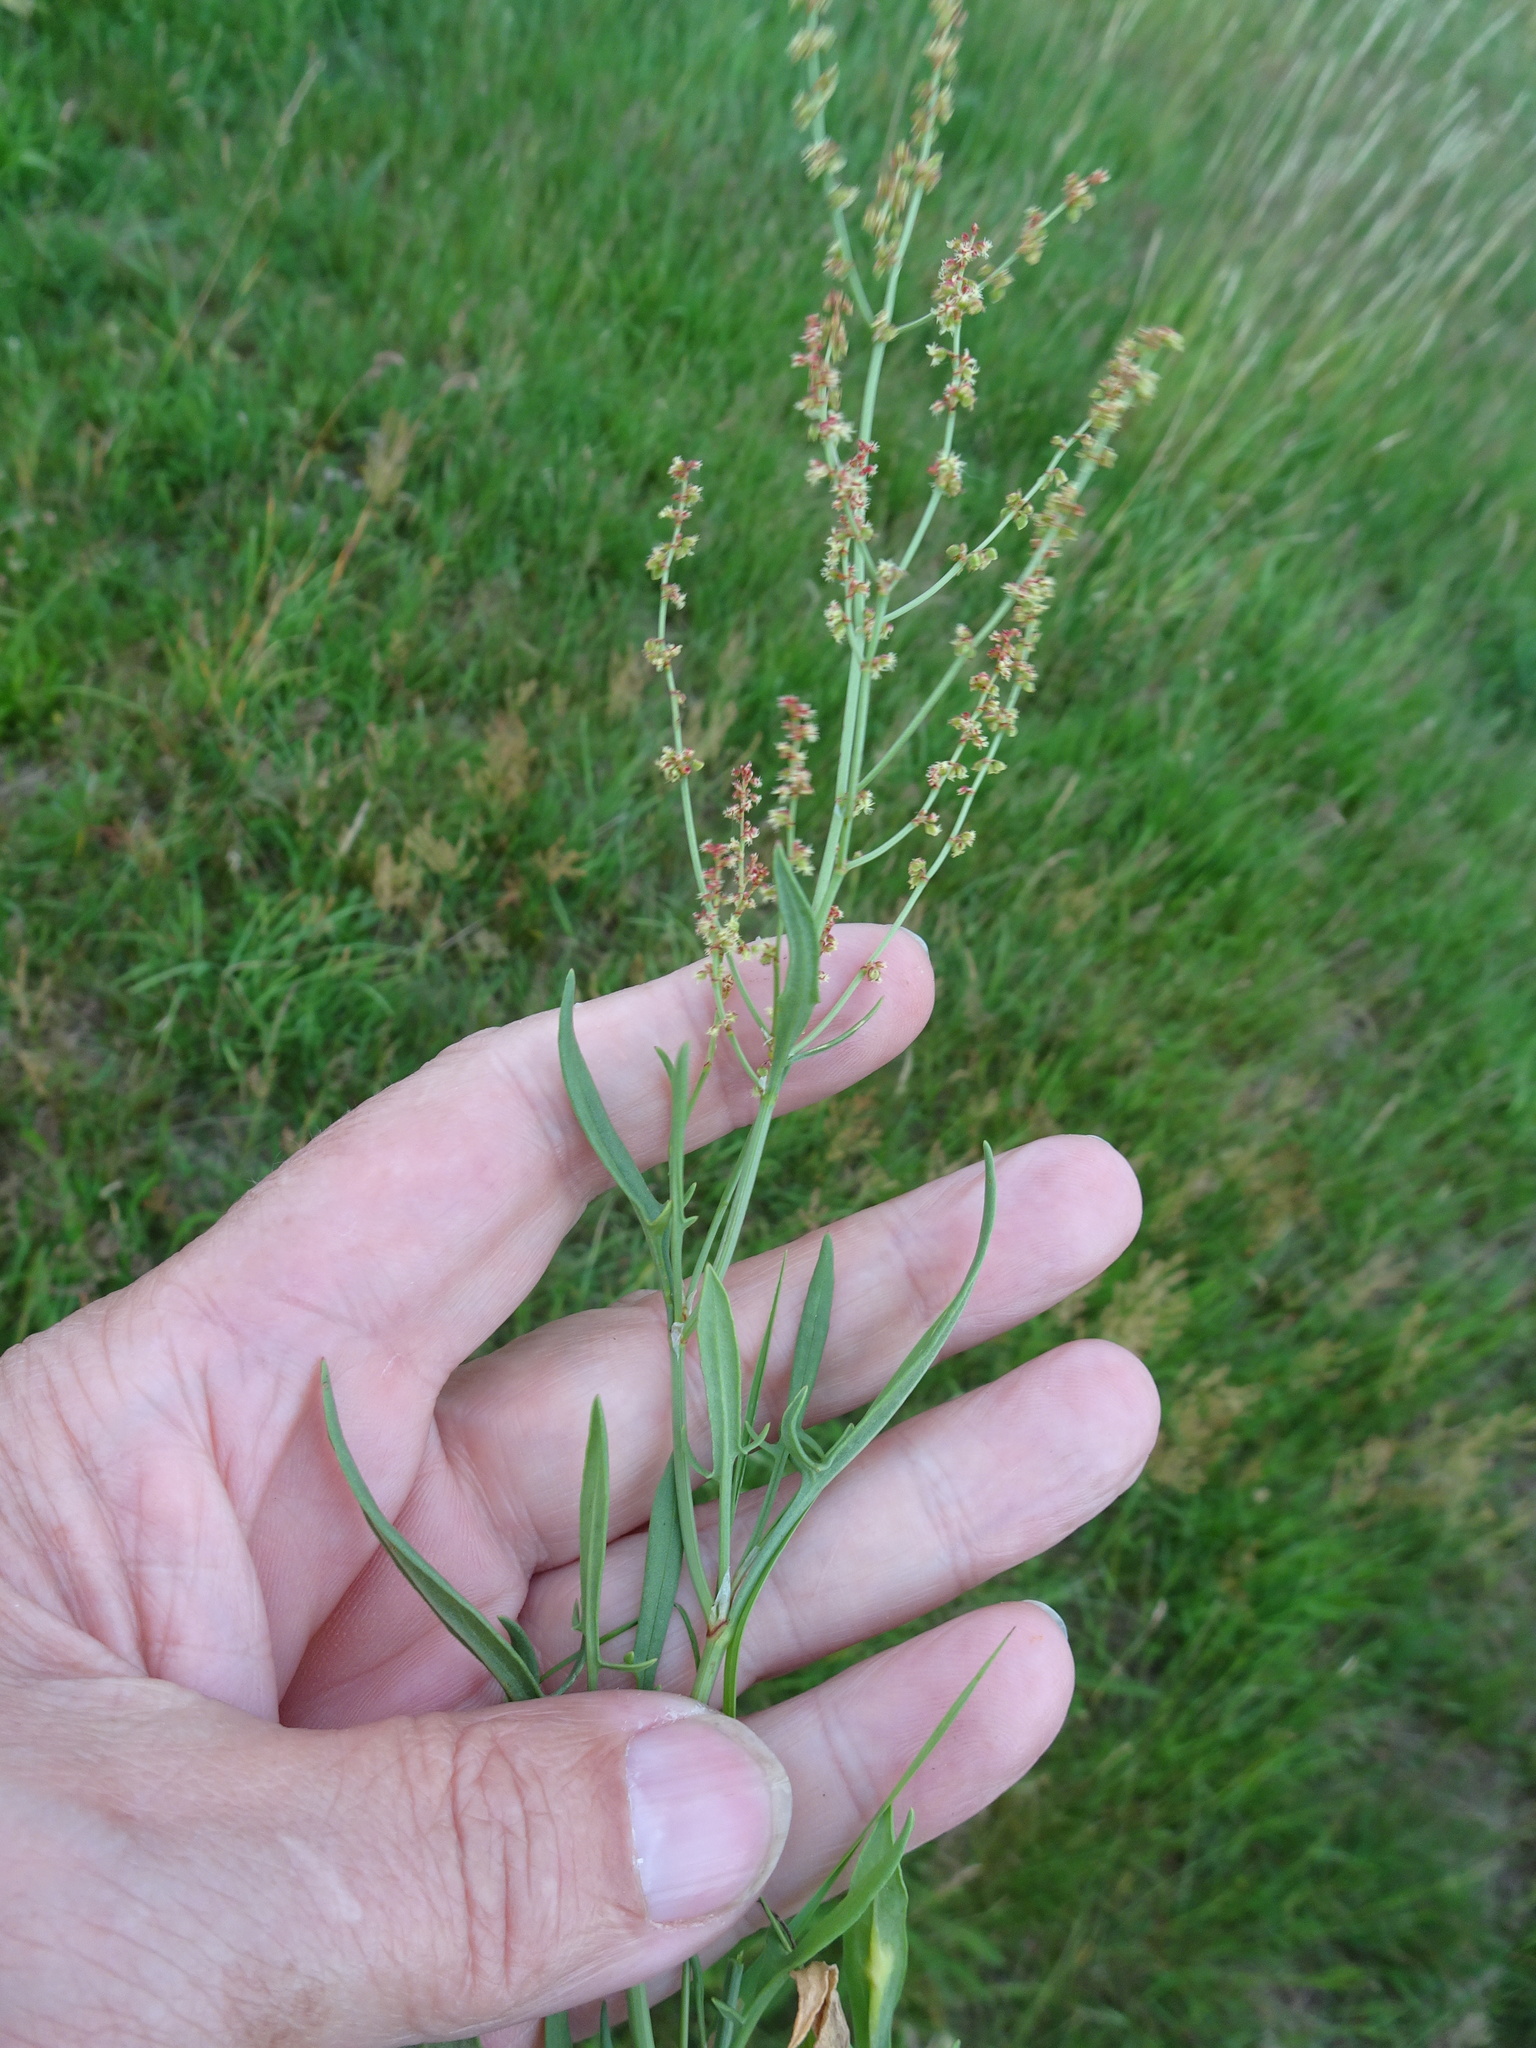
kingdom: Plantae
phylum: Tracheophyta
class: Magnoliopsida
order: Caryophyllales
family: Polygonaceae
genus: Rumex
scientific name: Rumex acetosella
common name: Common sheep sorrel
